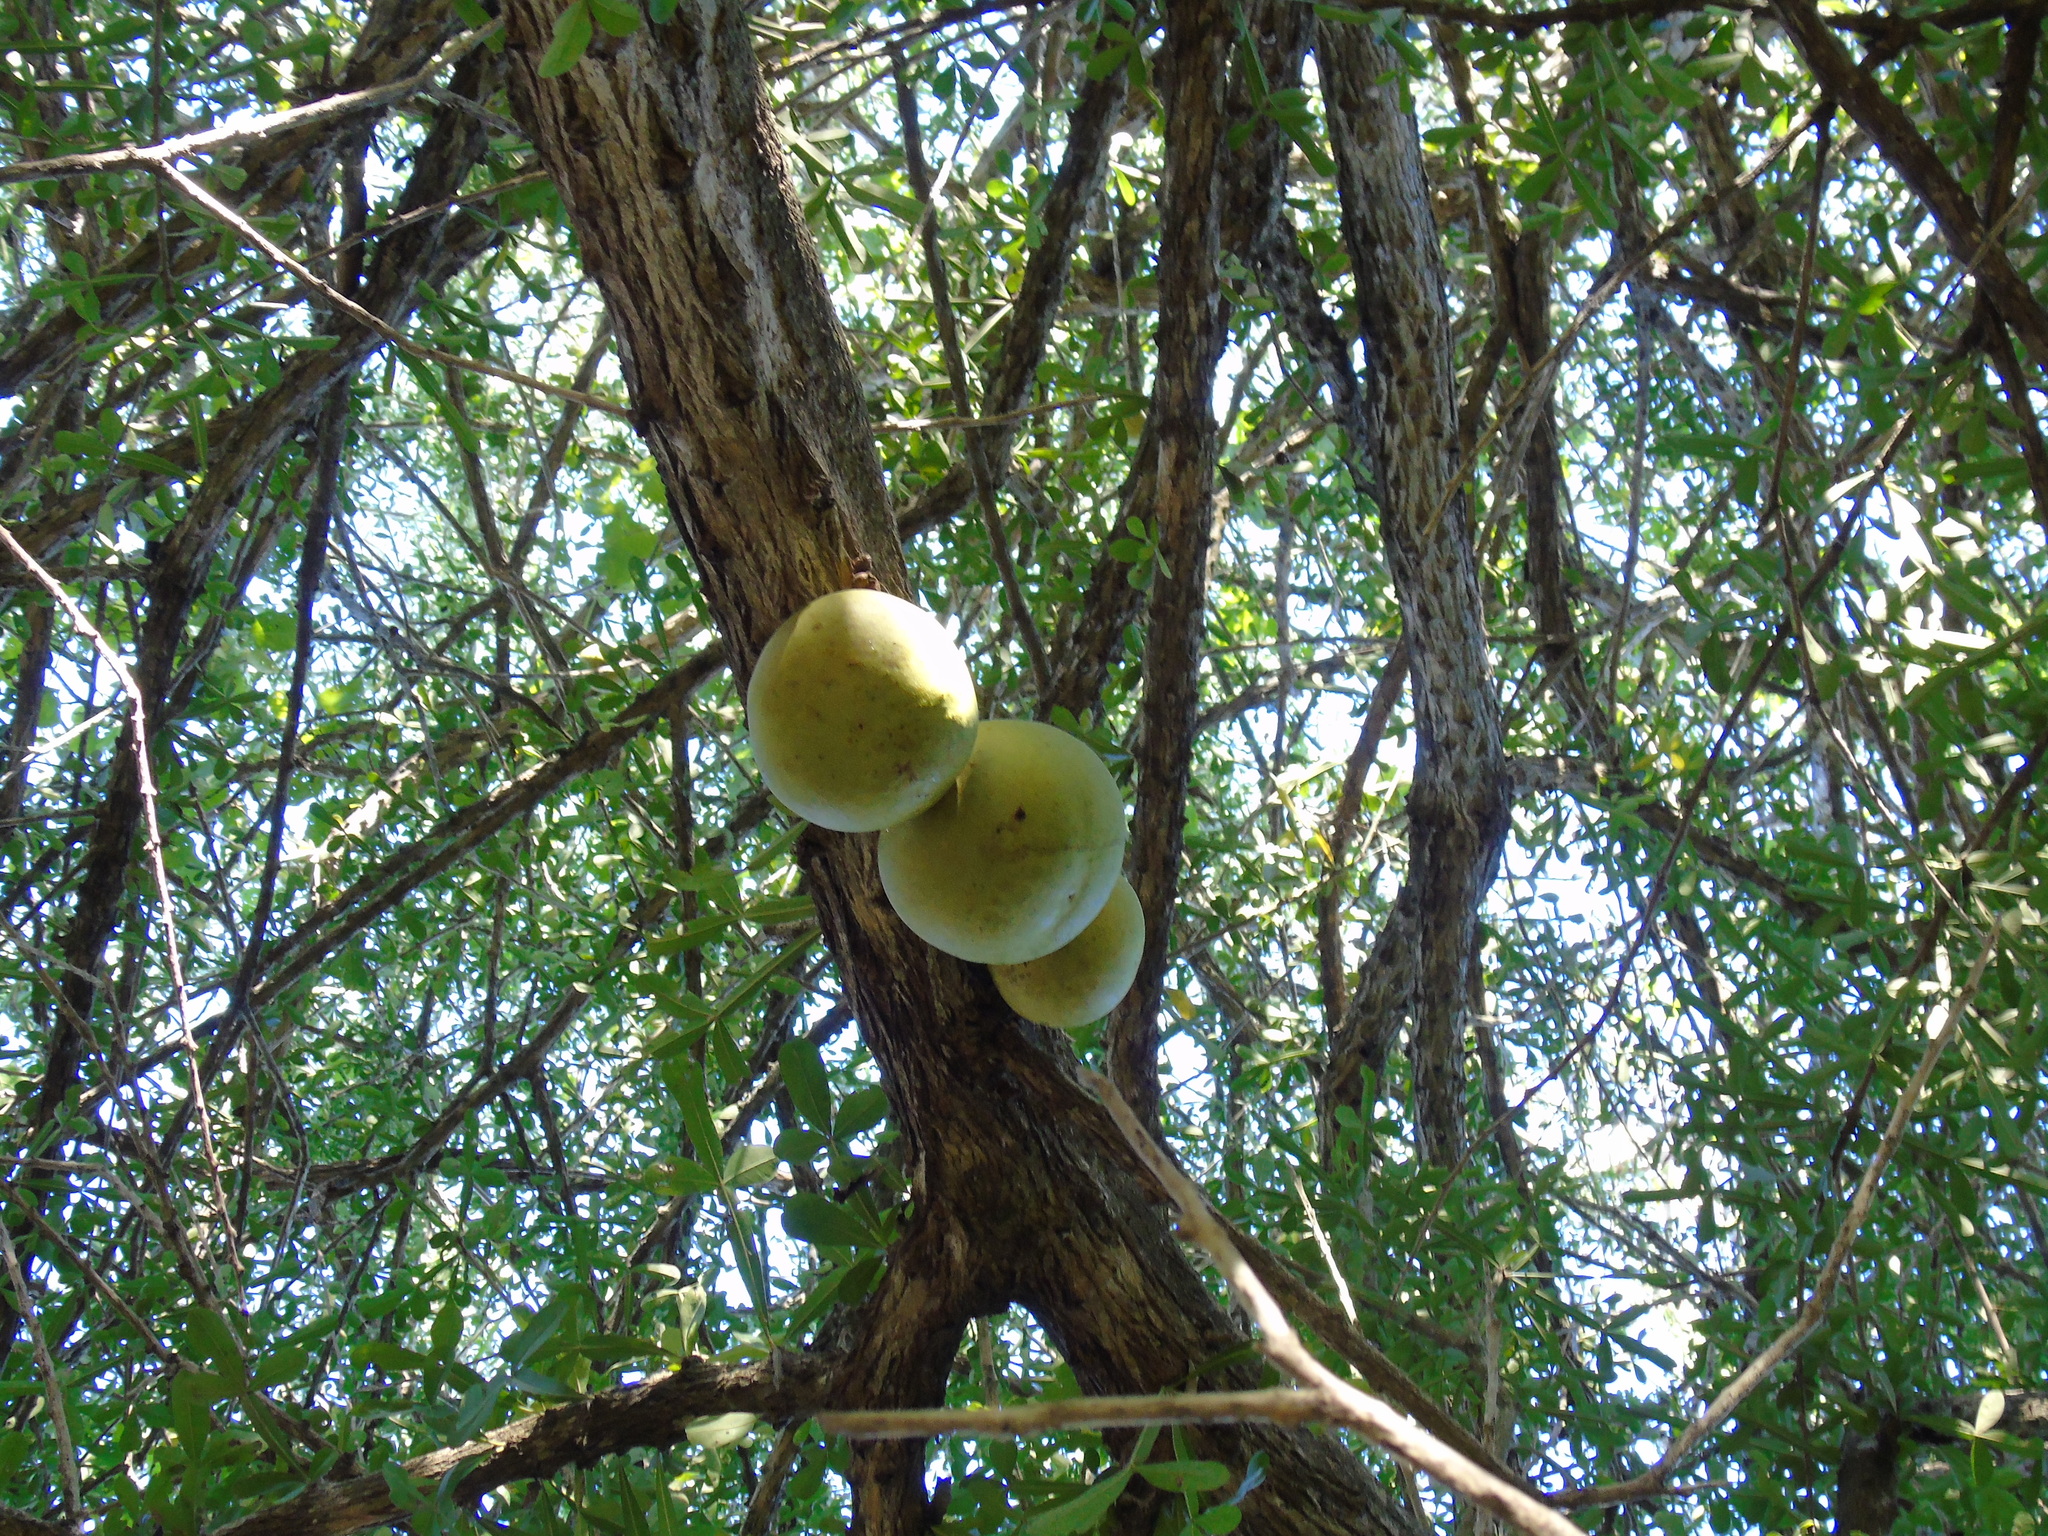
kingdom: Plantae
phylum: Tracheophyta
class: Magnoliopsida
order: Lamiales
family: Bignoniaceae
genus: Crescentia
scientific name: Crescentia alata
